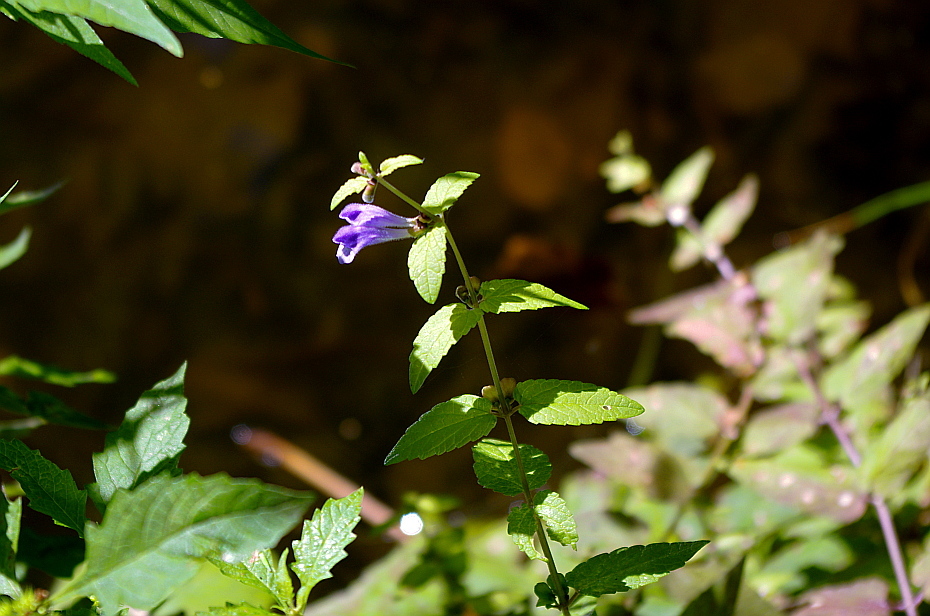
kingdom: Plantae
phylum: Tracheophyta
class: Magnoliopsida
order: Lamiales
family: Lamiaceae
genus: Scutellaria
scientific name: Scutellaria galericulata
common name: Skullcap
